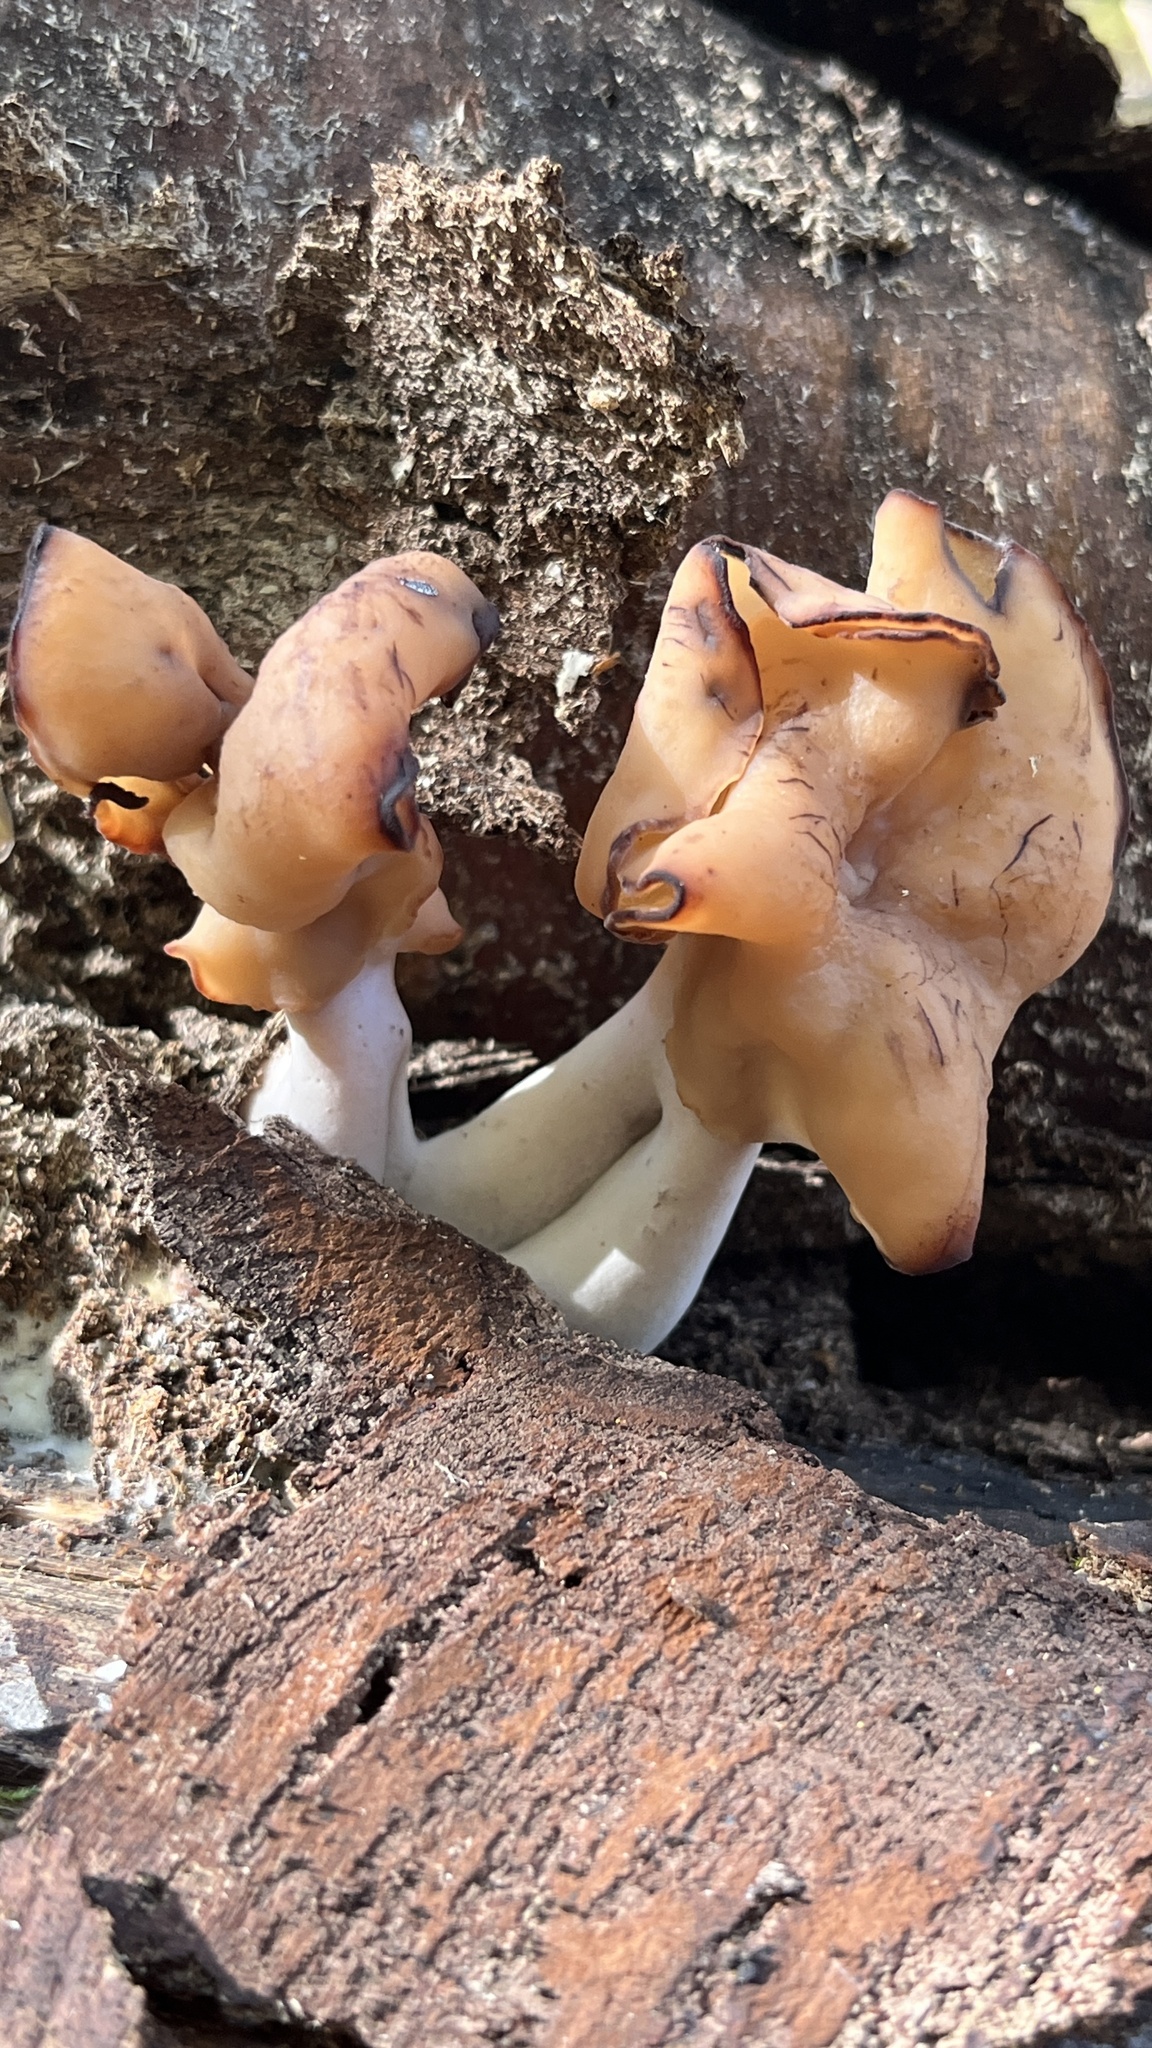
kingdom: Fungi
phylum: Ascomycota
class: Pezizomycetes
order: Pezizales
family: Discinaceae
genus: Gyromitra
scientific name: Gyromitra infula
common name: Pouched false morel
